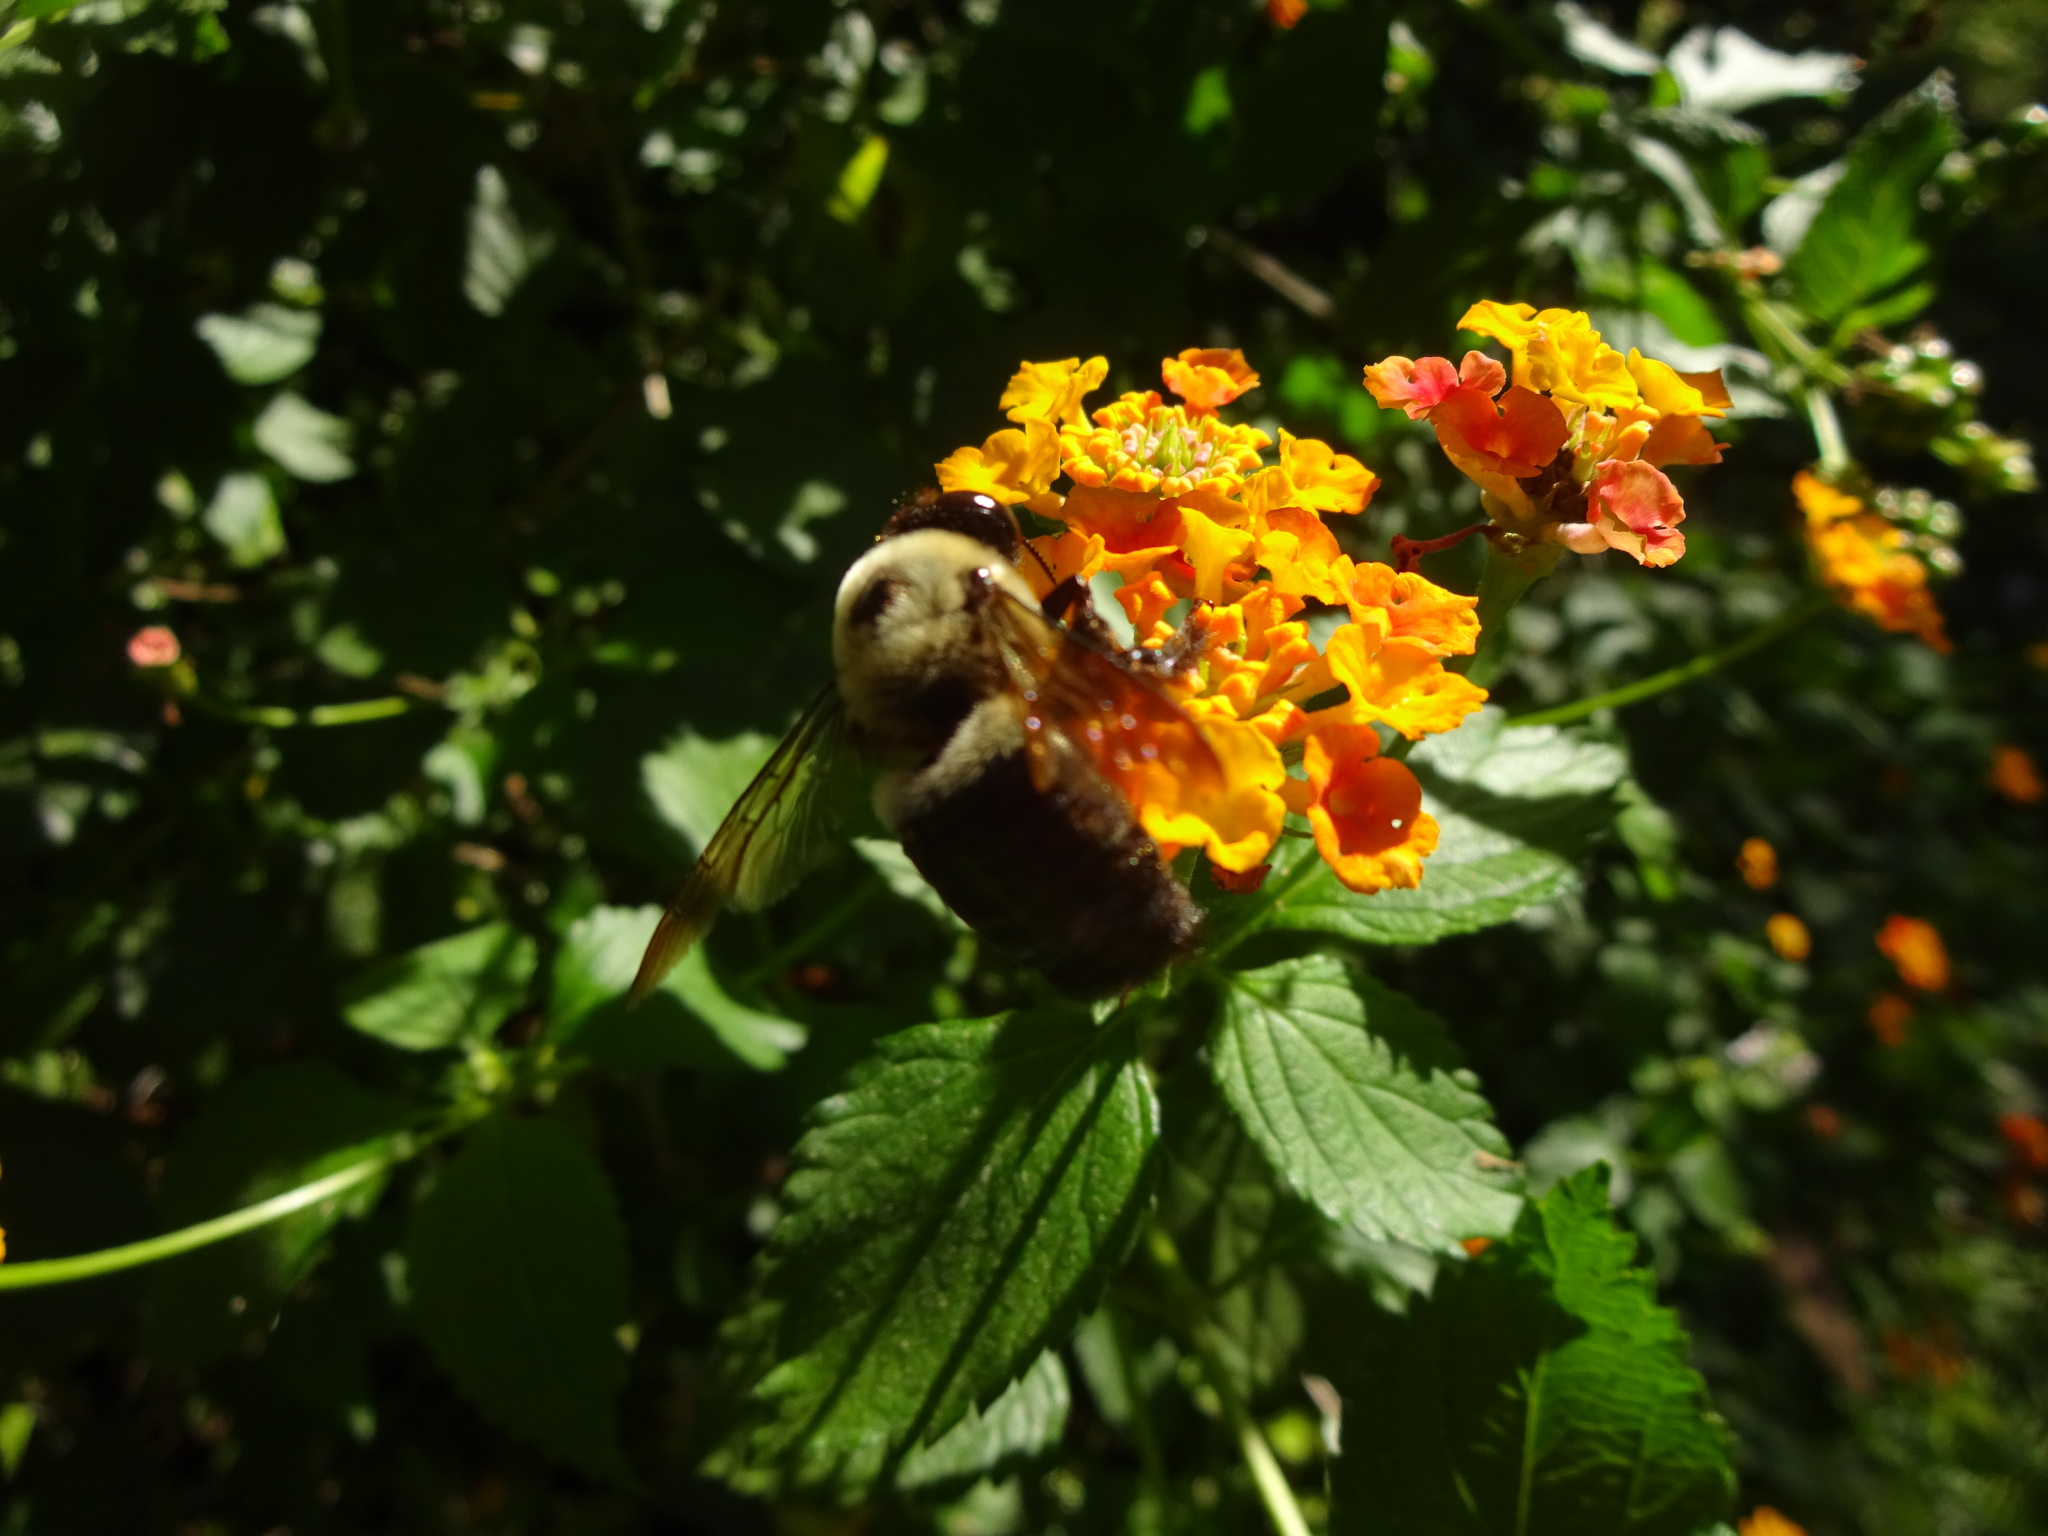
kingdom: Animalia
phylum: Arthropoda
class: Insecta
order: Hymenoptera
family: Apidae
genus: Xylocopa
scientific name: Xylocopa virginica
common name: Carpenter bee
